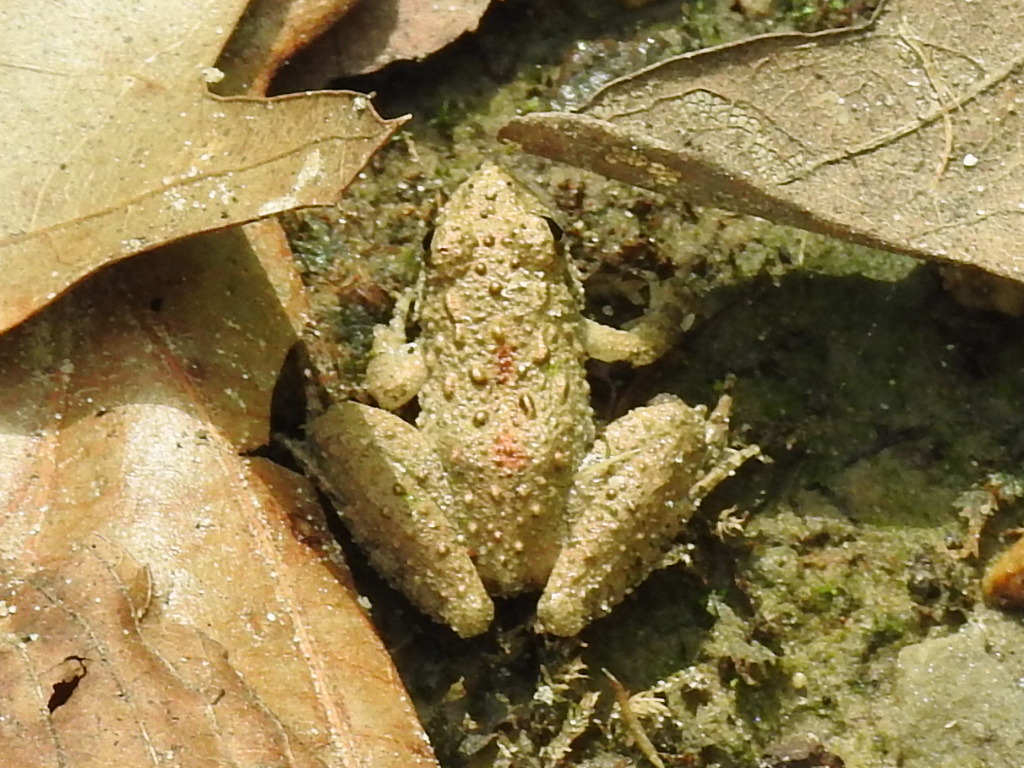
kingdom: Animalia
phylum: Chordata
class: Amphibia
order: Anura
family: Hylidae
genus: Acris
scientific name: Acris blanchardi
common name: Blanchard's cricket frog
